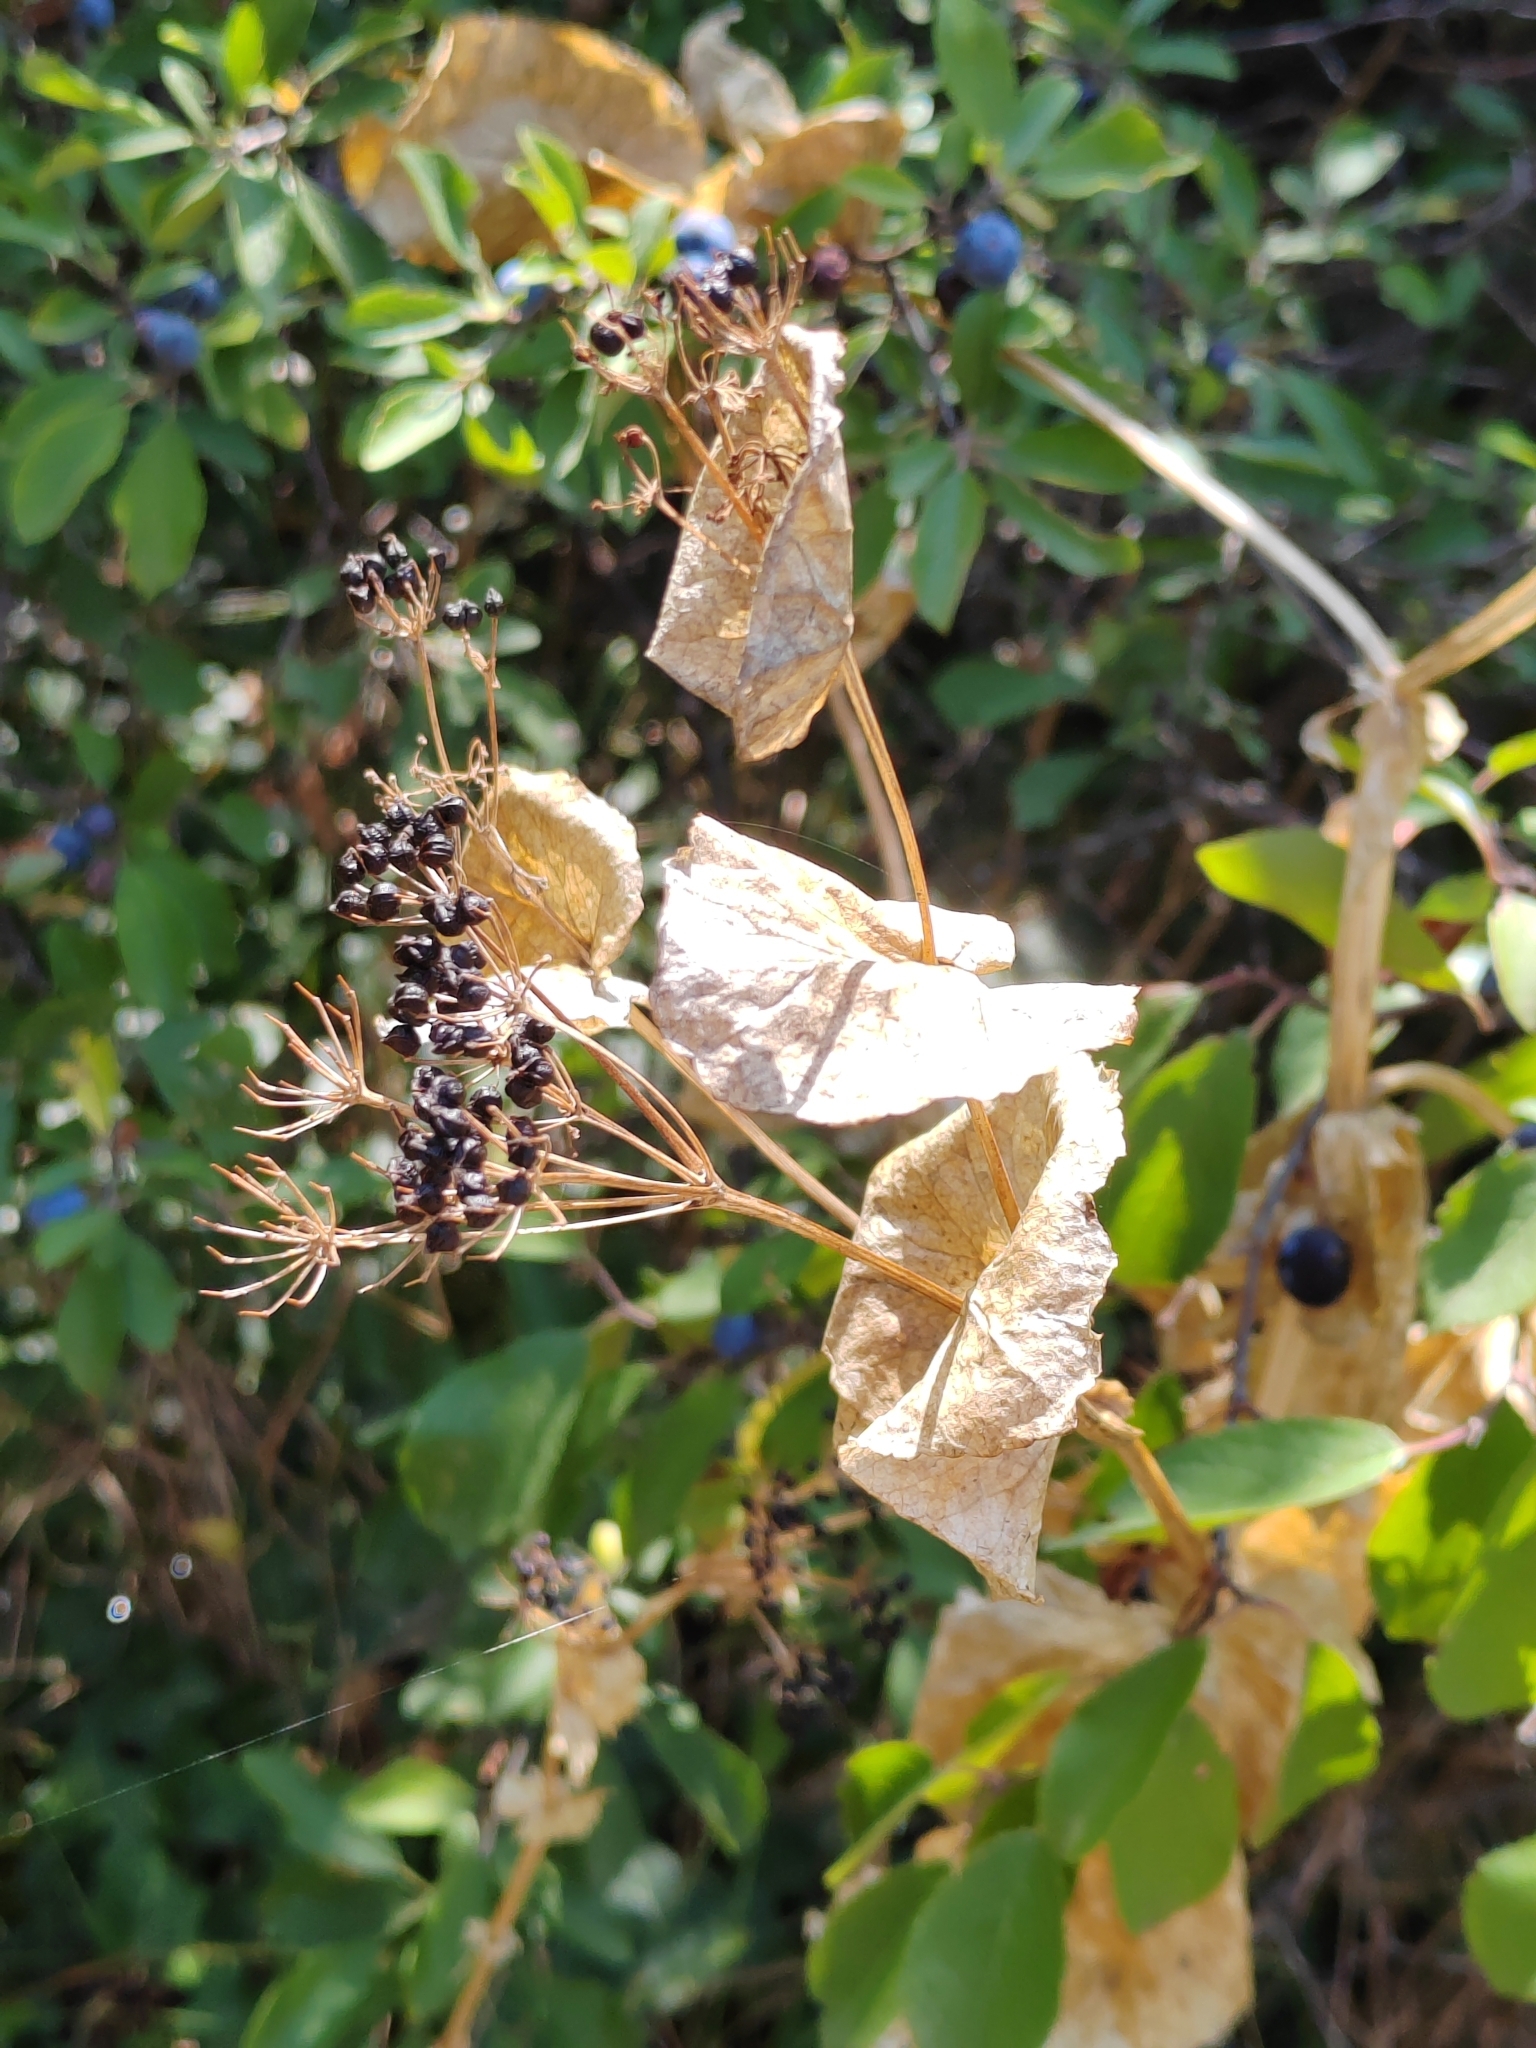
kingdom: Plantae
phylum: Tracheophyta
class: Magnoliopsida
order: Apiales
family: Apiaceae
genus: Smyrnium
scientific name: Smyrnium perfoliatum
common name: Perfoliate alexanders
